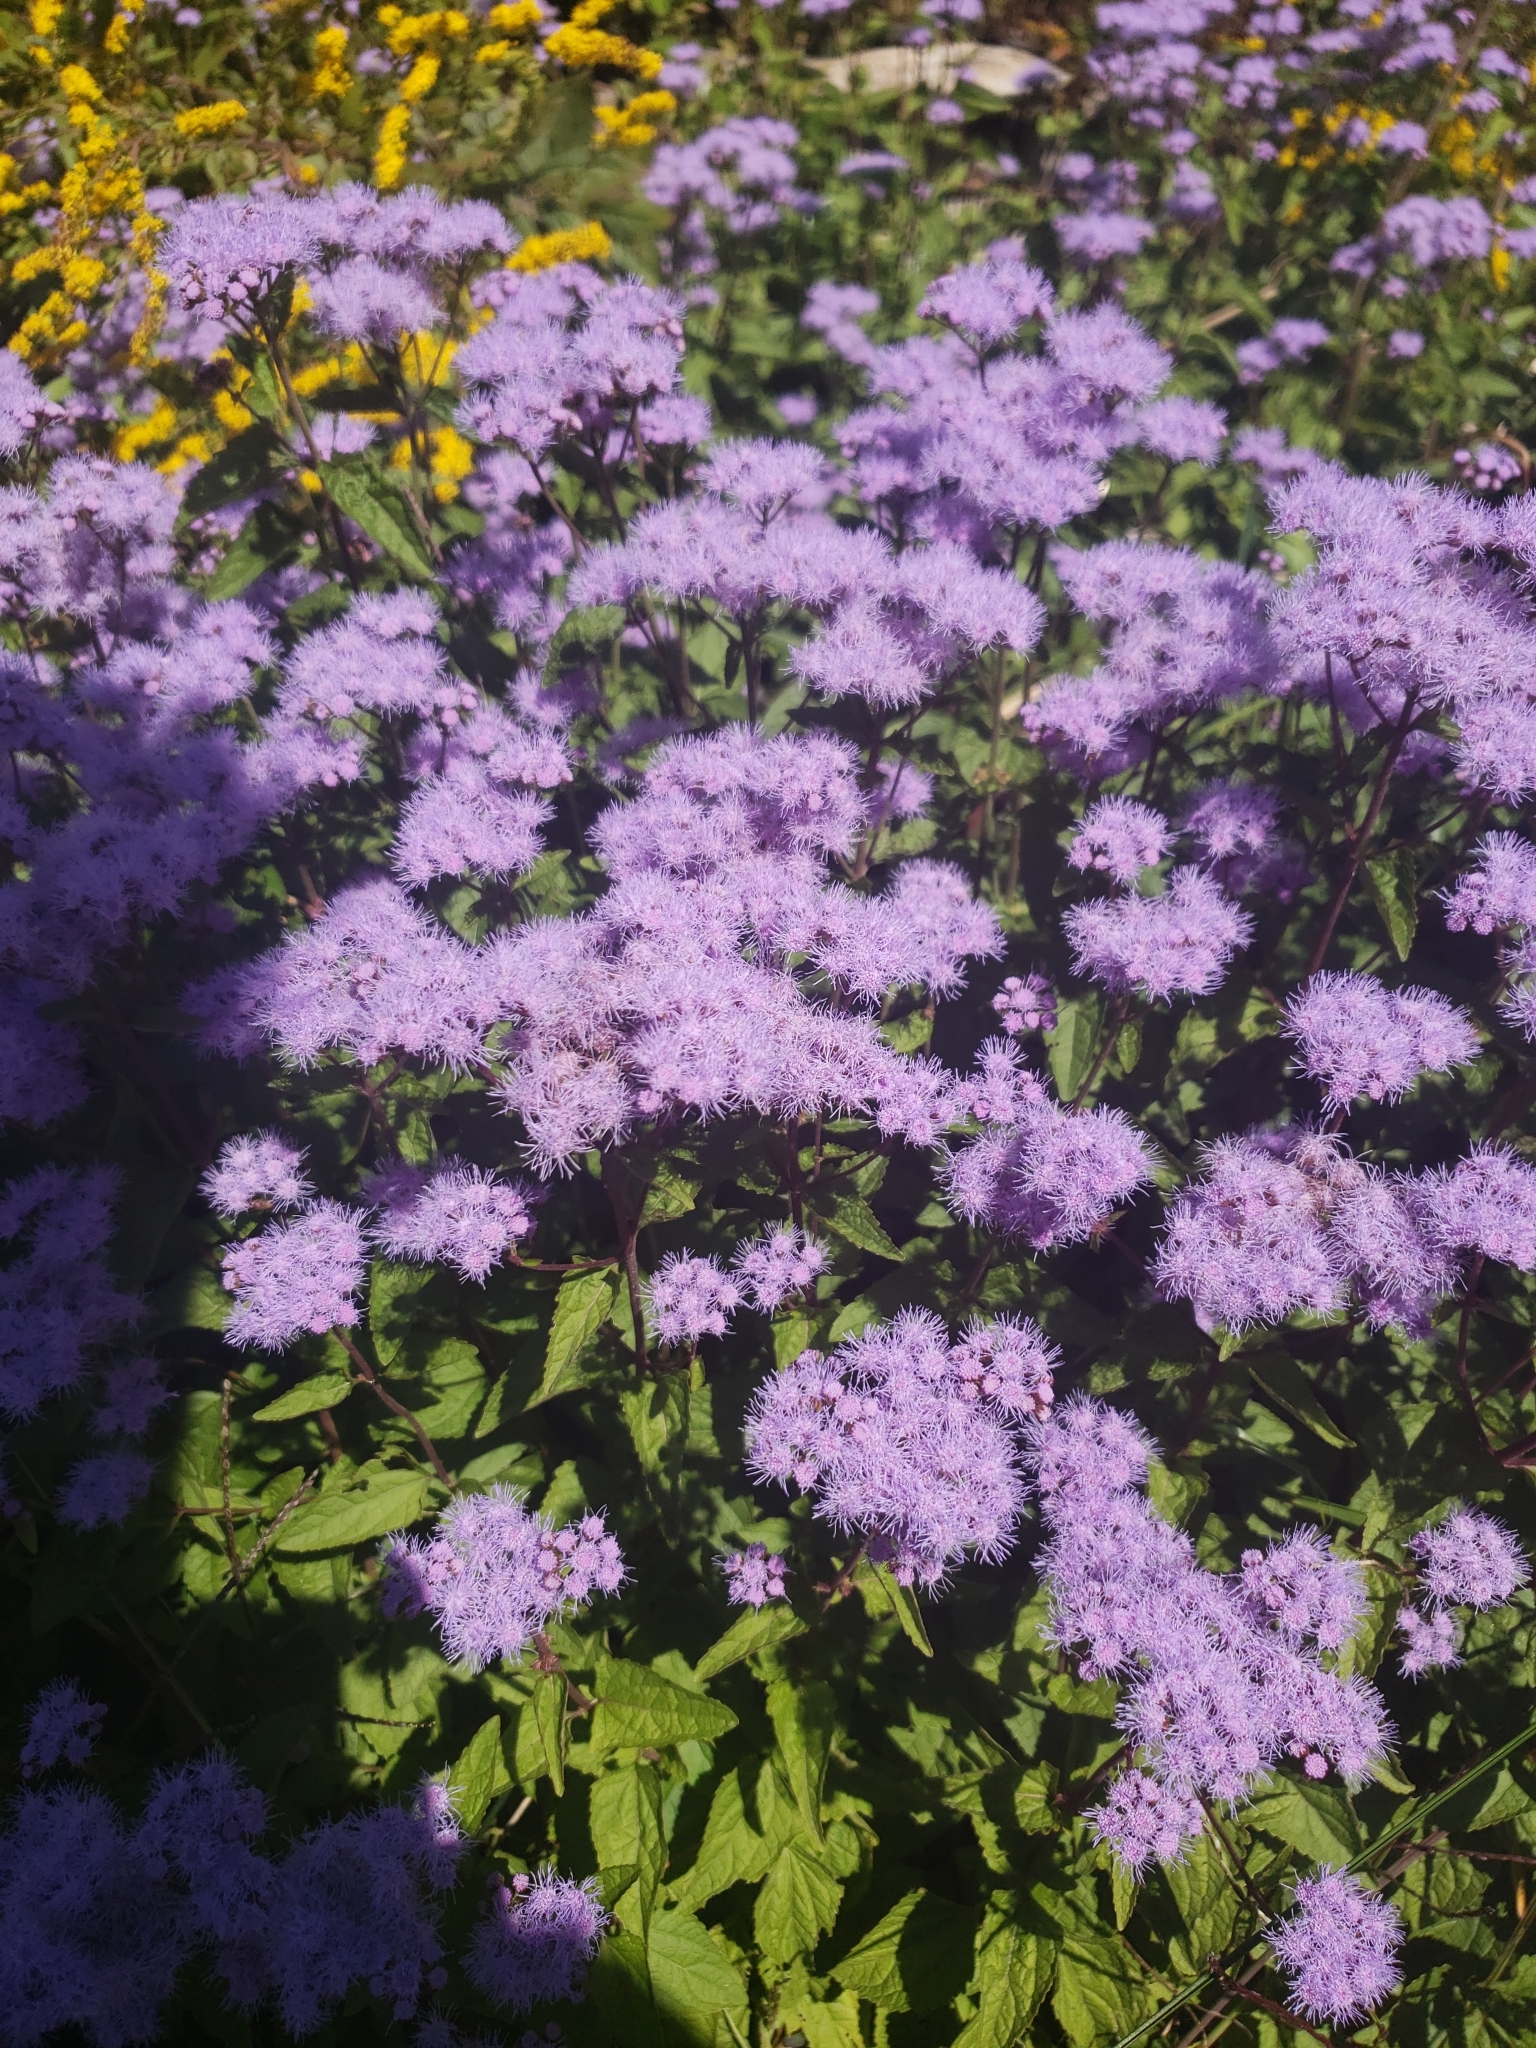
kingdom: Plantae
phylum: Tracheophyta
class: Magnoliopsida
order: Asterales
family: Asteraceae
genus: Conoclinium
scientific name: Conoclinium coelestinum
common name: Blue mistflower
